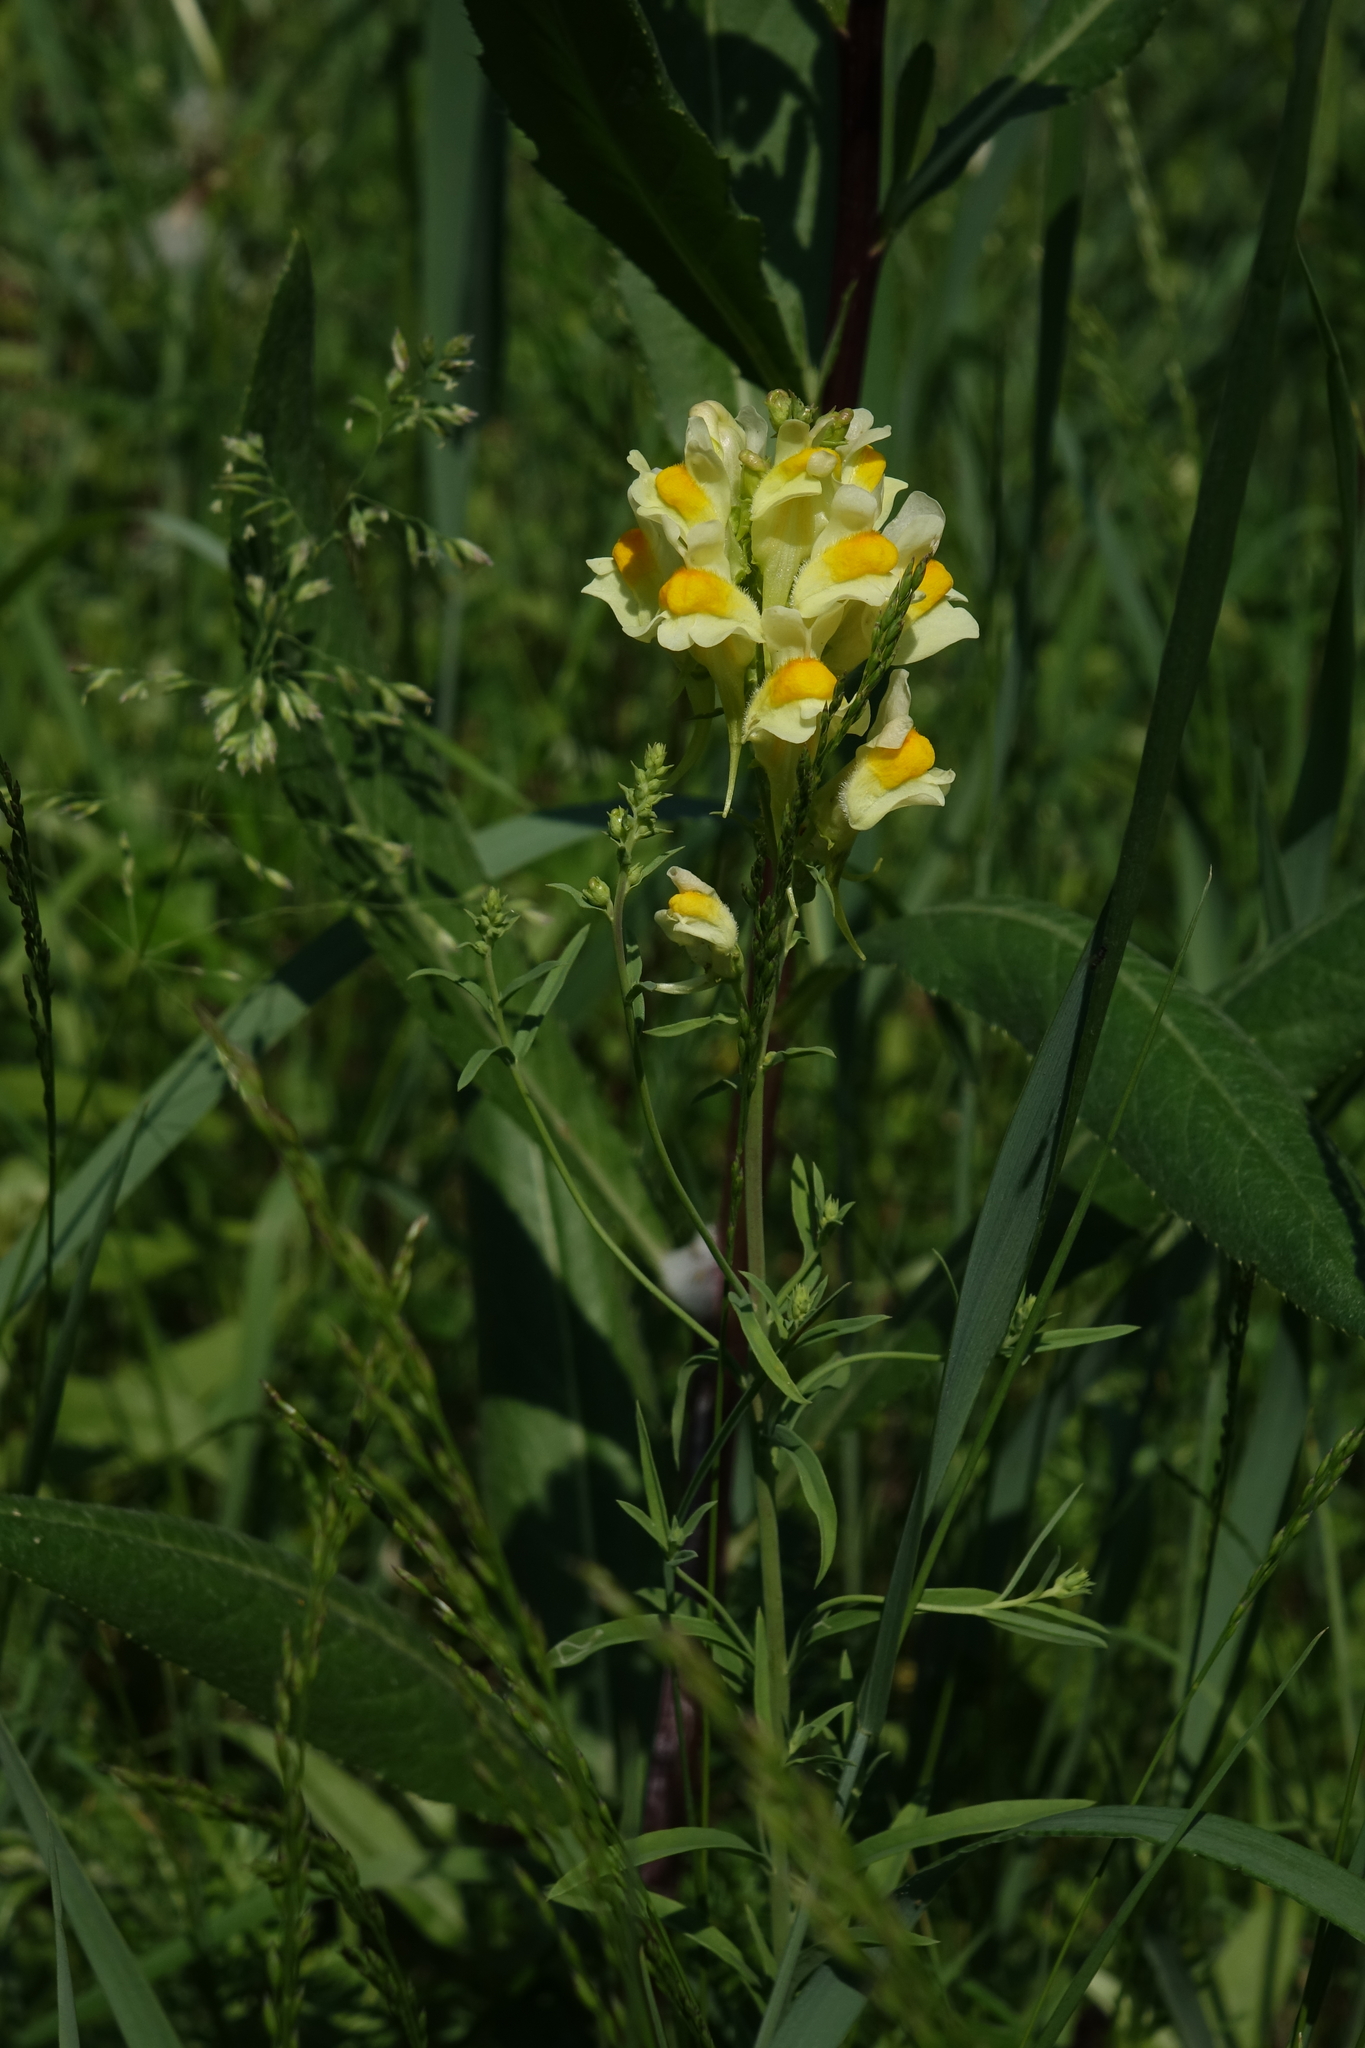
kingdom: Plantae
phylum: Tracheophyta
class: Magnoliopsida
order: Lamiales
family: Plantaginaceae
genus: Linaria
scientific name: Linaria vulgaris
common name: Butter and eggs
